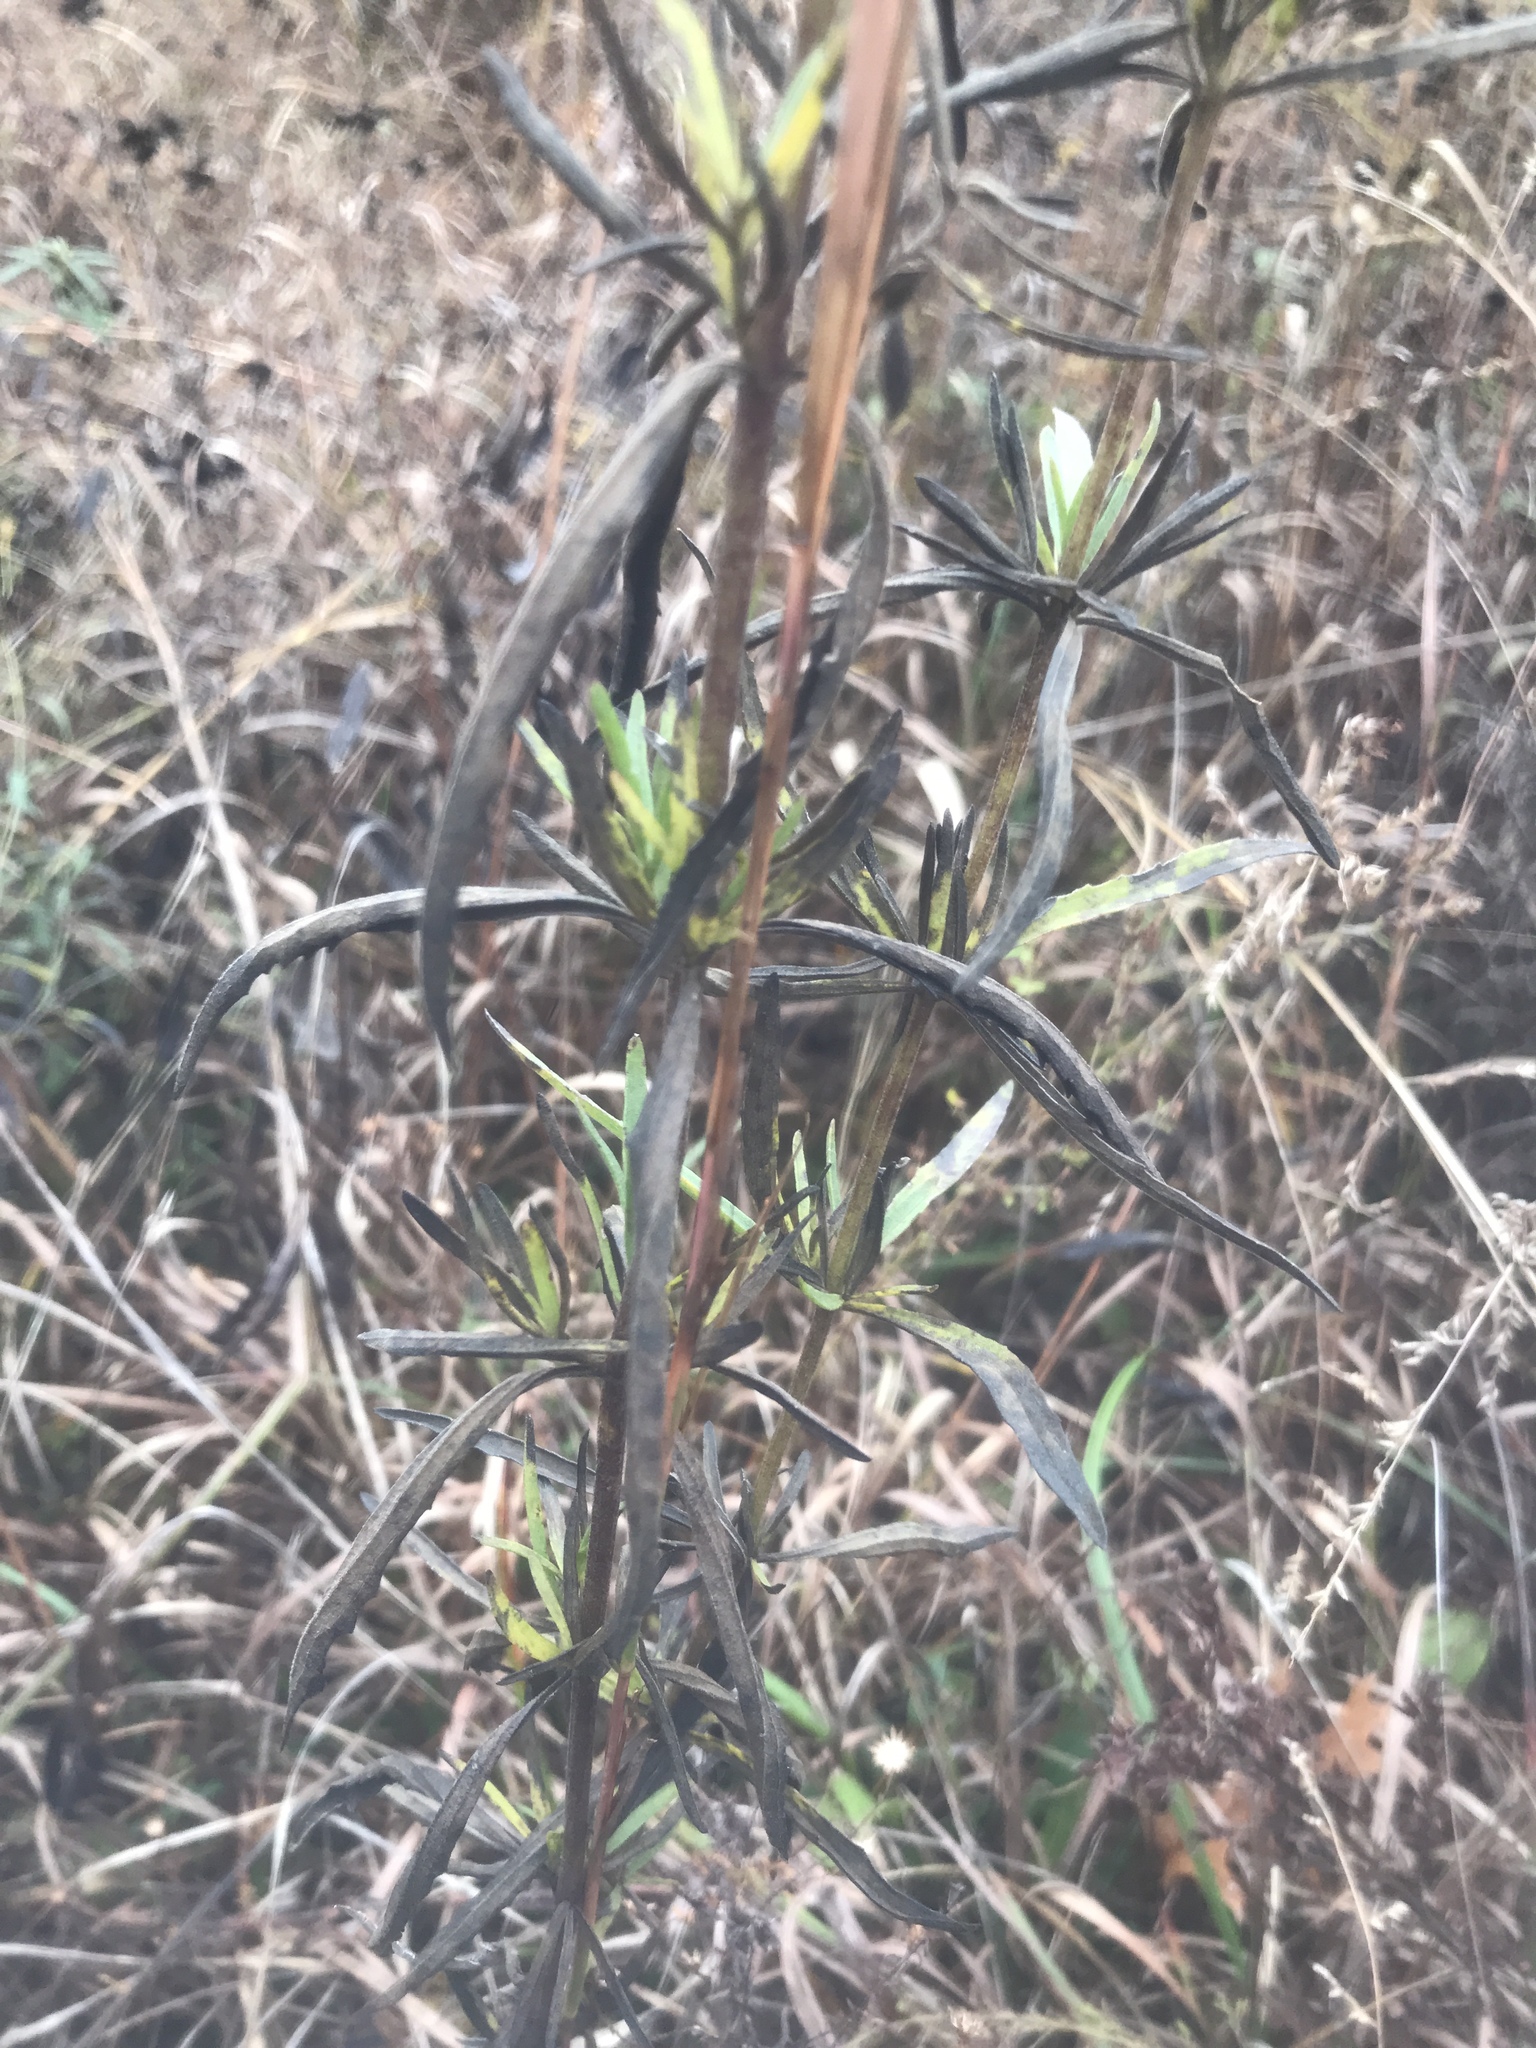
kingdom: Plantae
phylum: Tracheophyta
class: Magnoliopsida
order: Asterales
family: Asteraceae
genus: Eupatorium
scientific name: Eupatorium torreyanum
